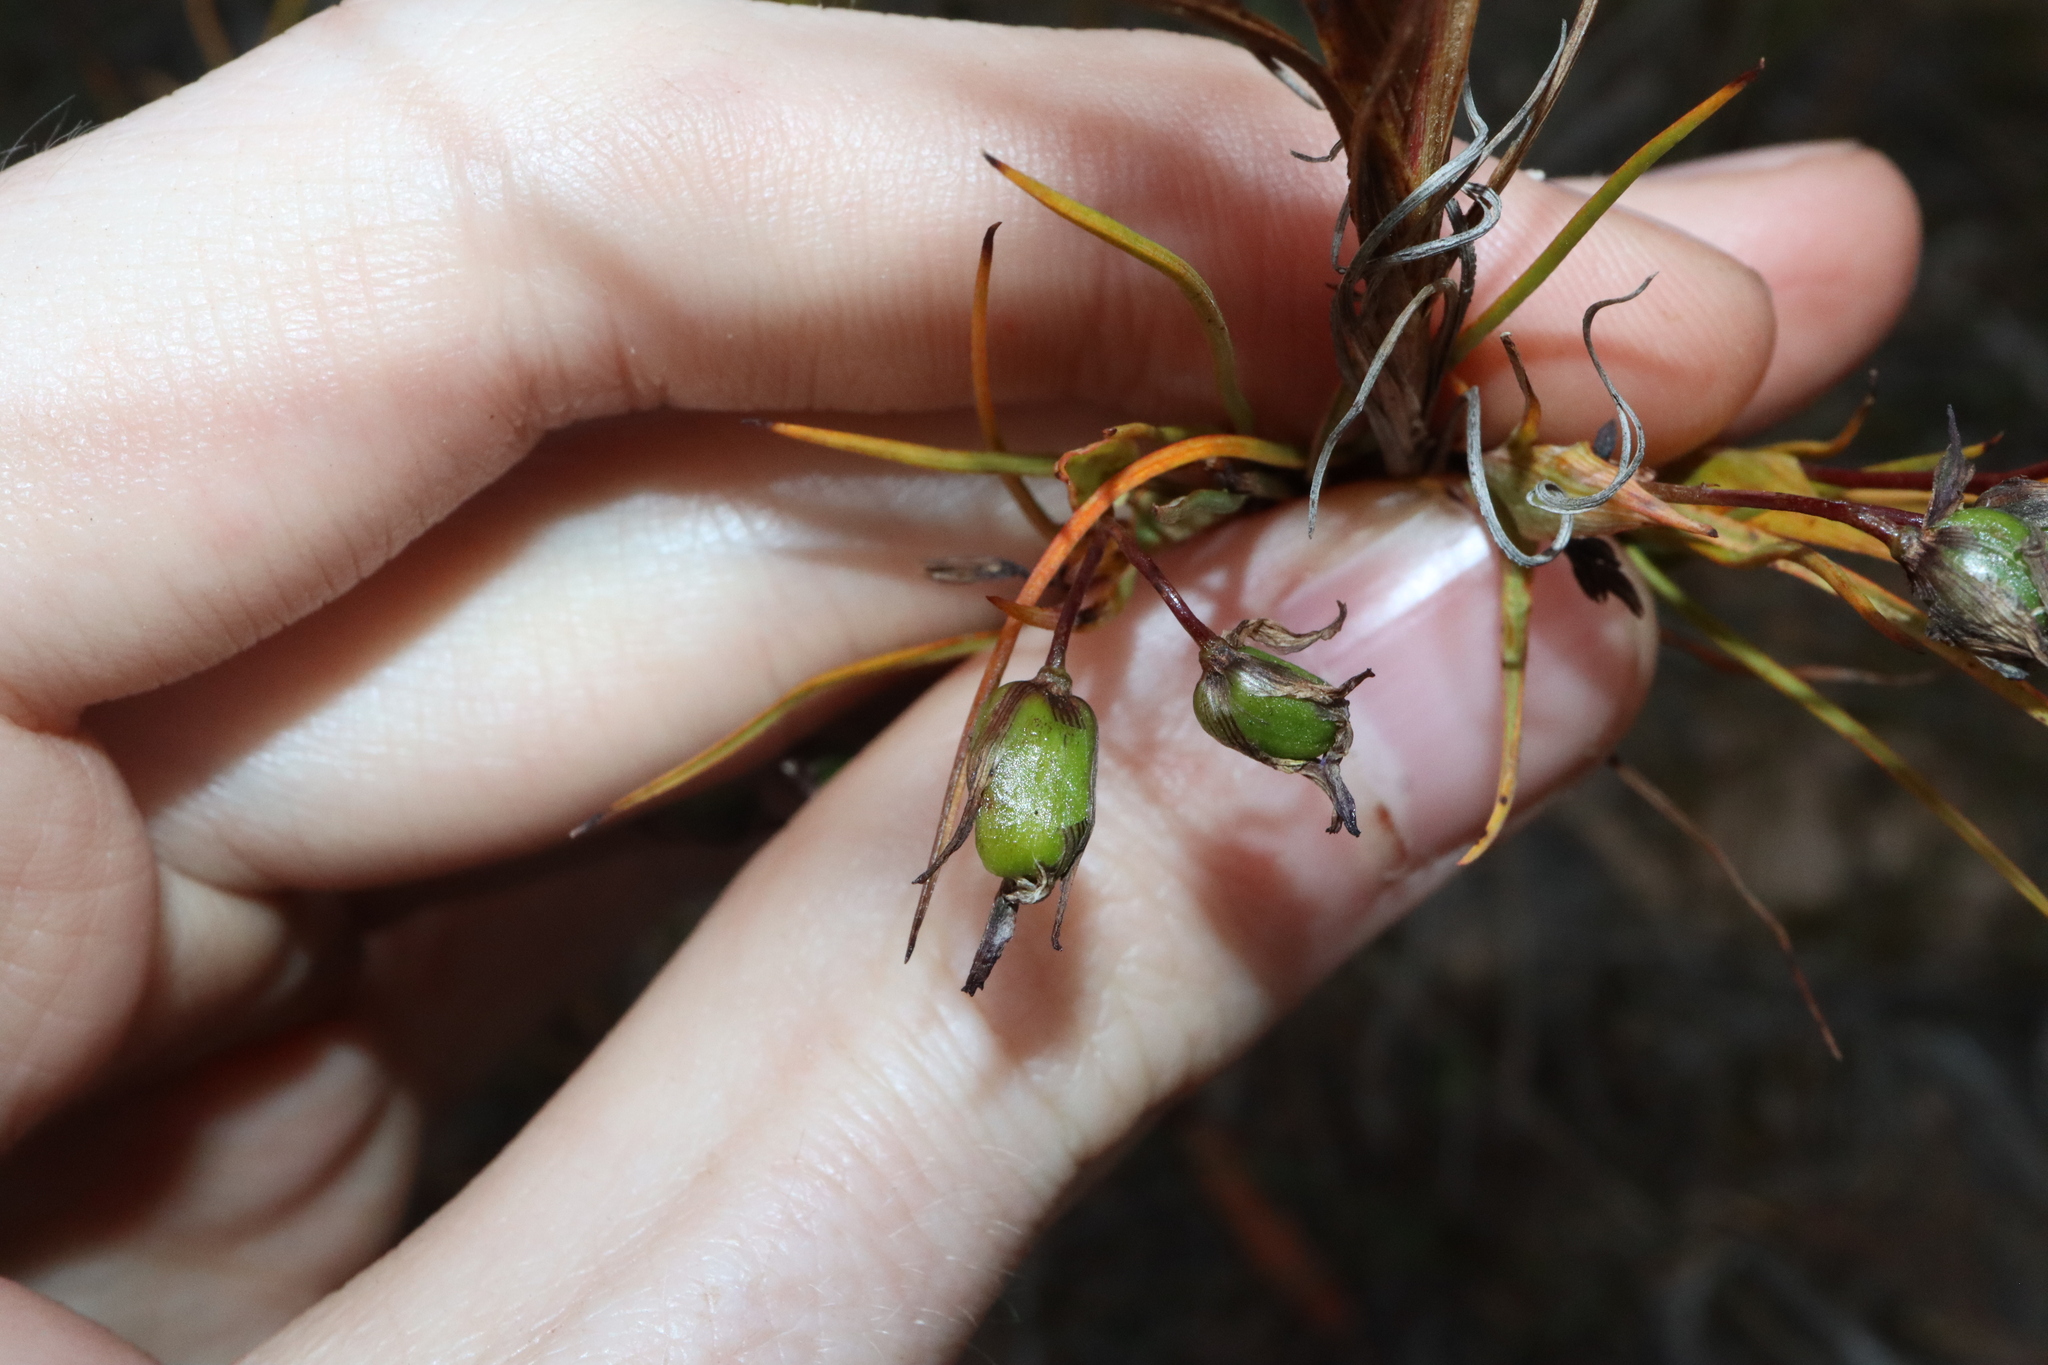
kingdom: Plantae
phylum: Tracheophyta
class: Liliopsida
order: Asparagales
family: Asphodelaceae
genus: Stypandra
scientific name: Stypandra glauca
